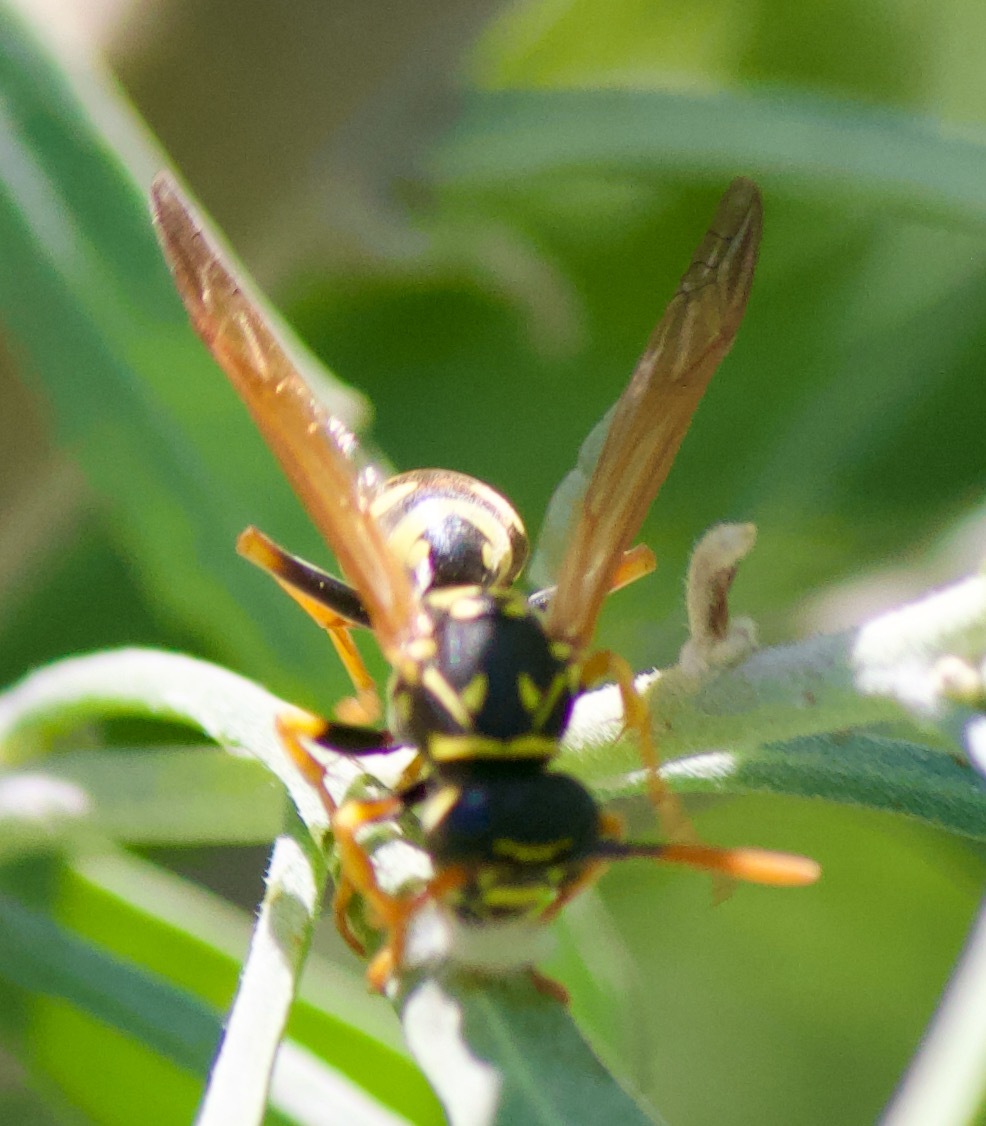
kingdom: Animalia
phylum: Arthropoda
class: Insecta
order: Hymenoptera
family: Eumenidae
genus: Polistes
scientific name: Polistes dominula
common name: Paper wasp
